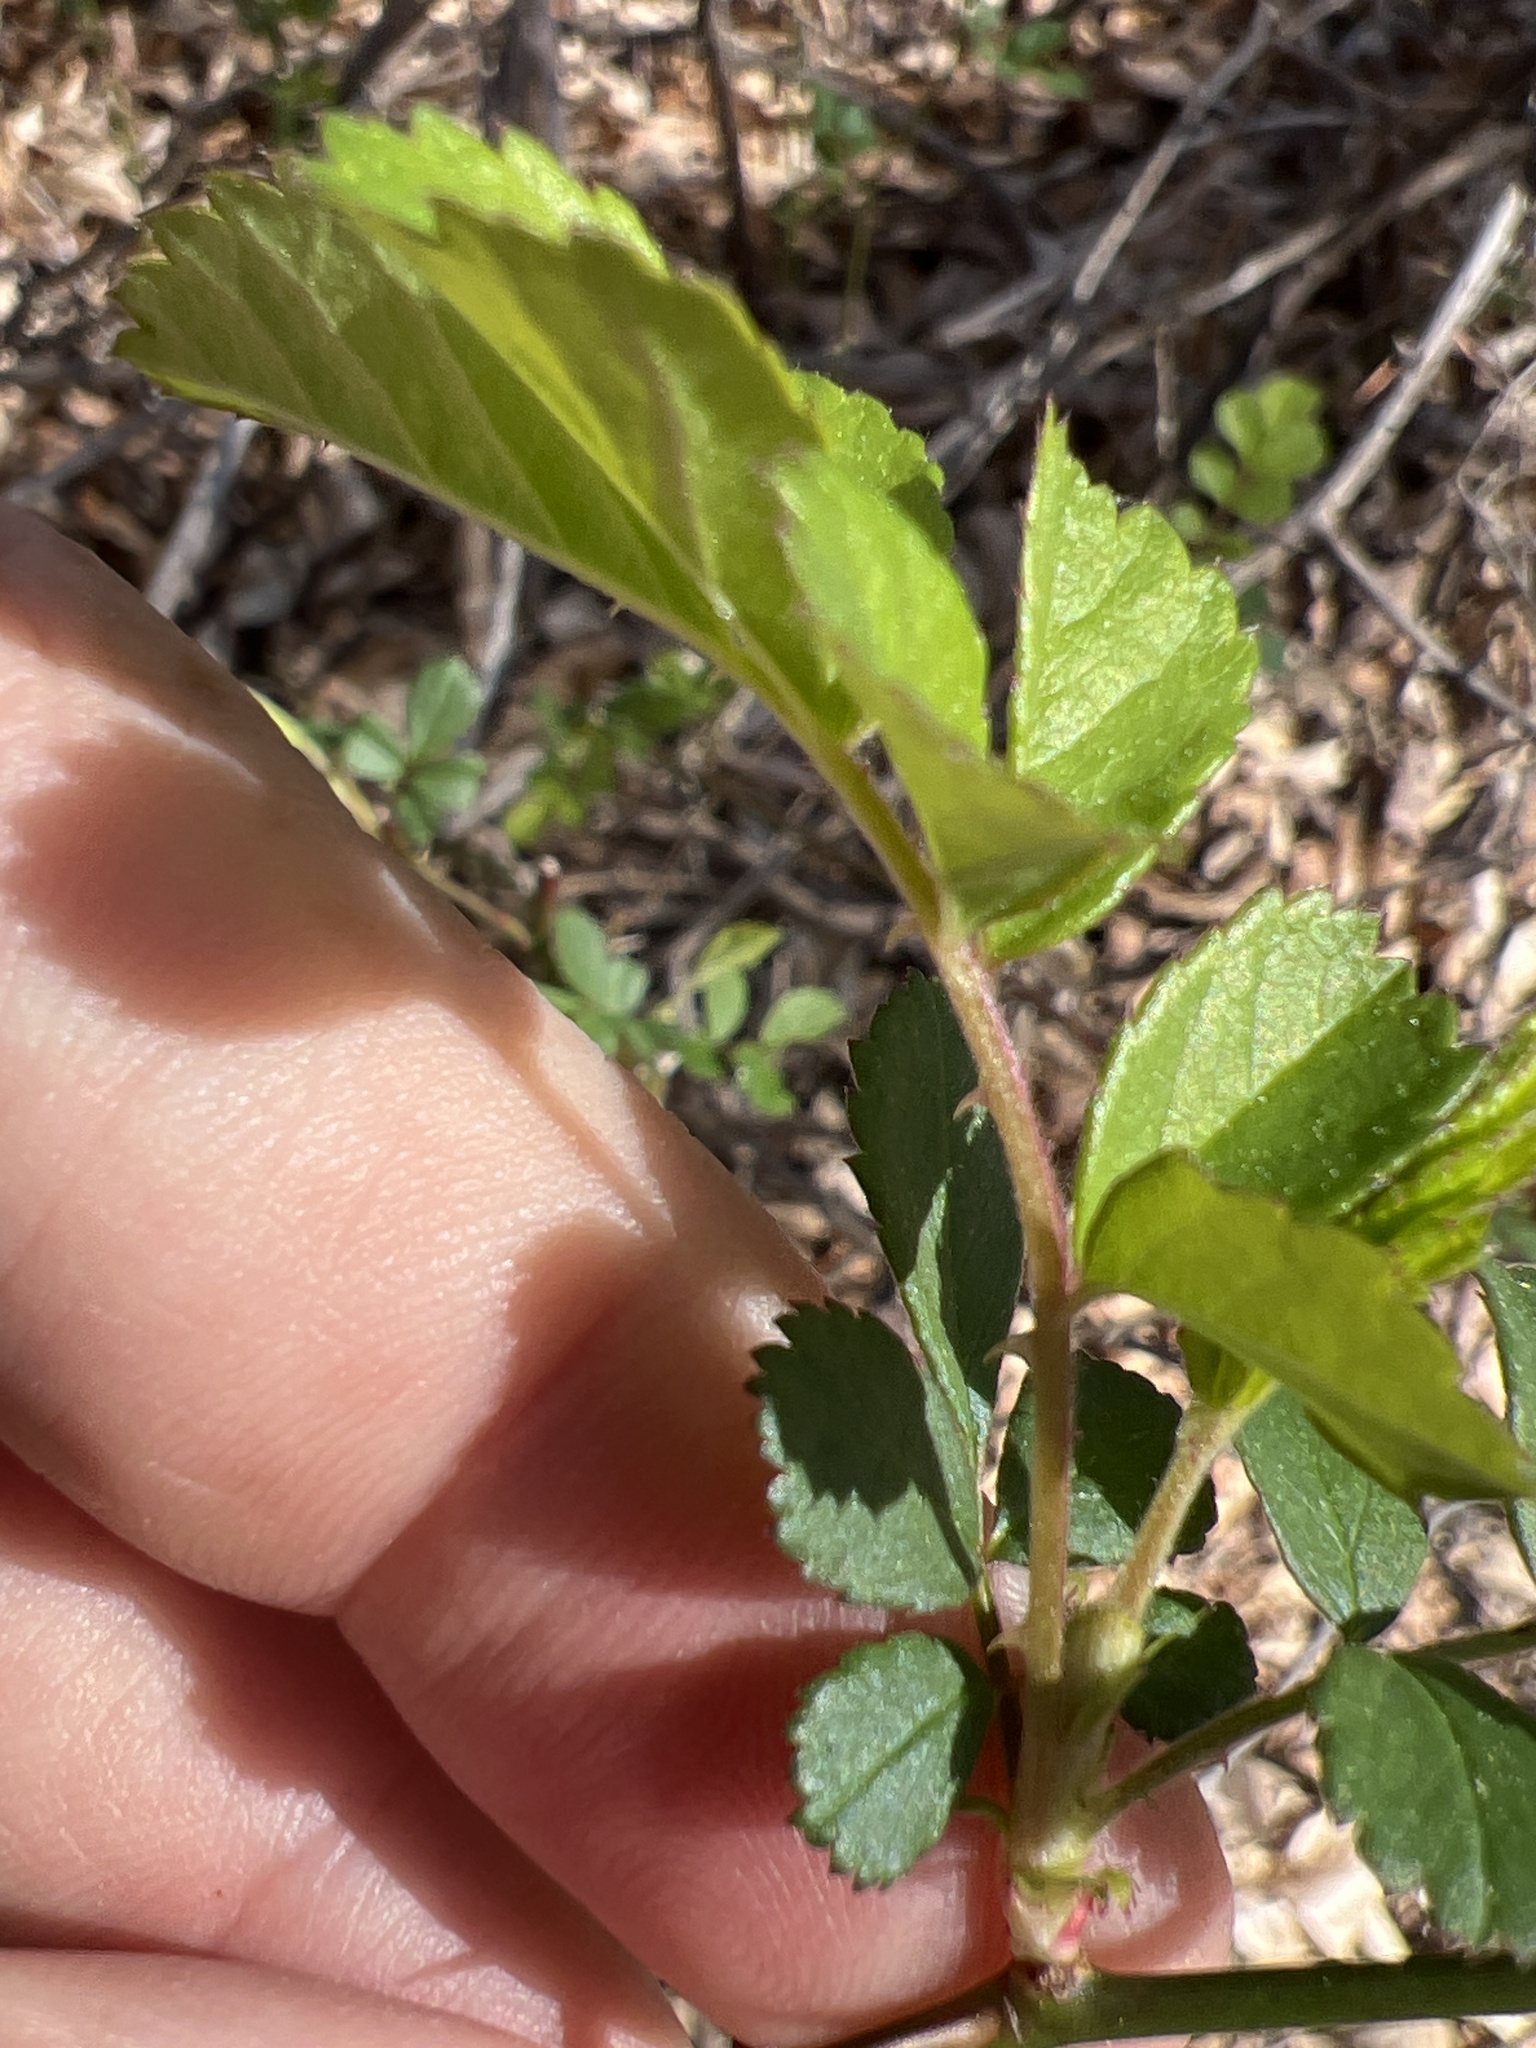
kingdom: Plantae
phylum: Tracheophyta
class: Magnoliopsida
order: Rosales
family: Rosaceae
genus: Rosa
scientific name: Rosa multiflora
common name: Multiflora rose
